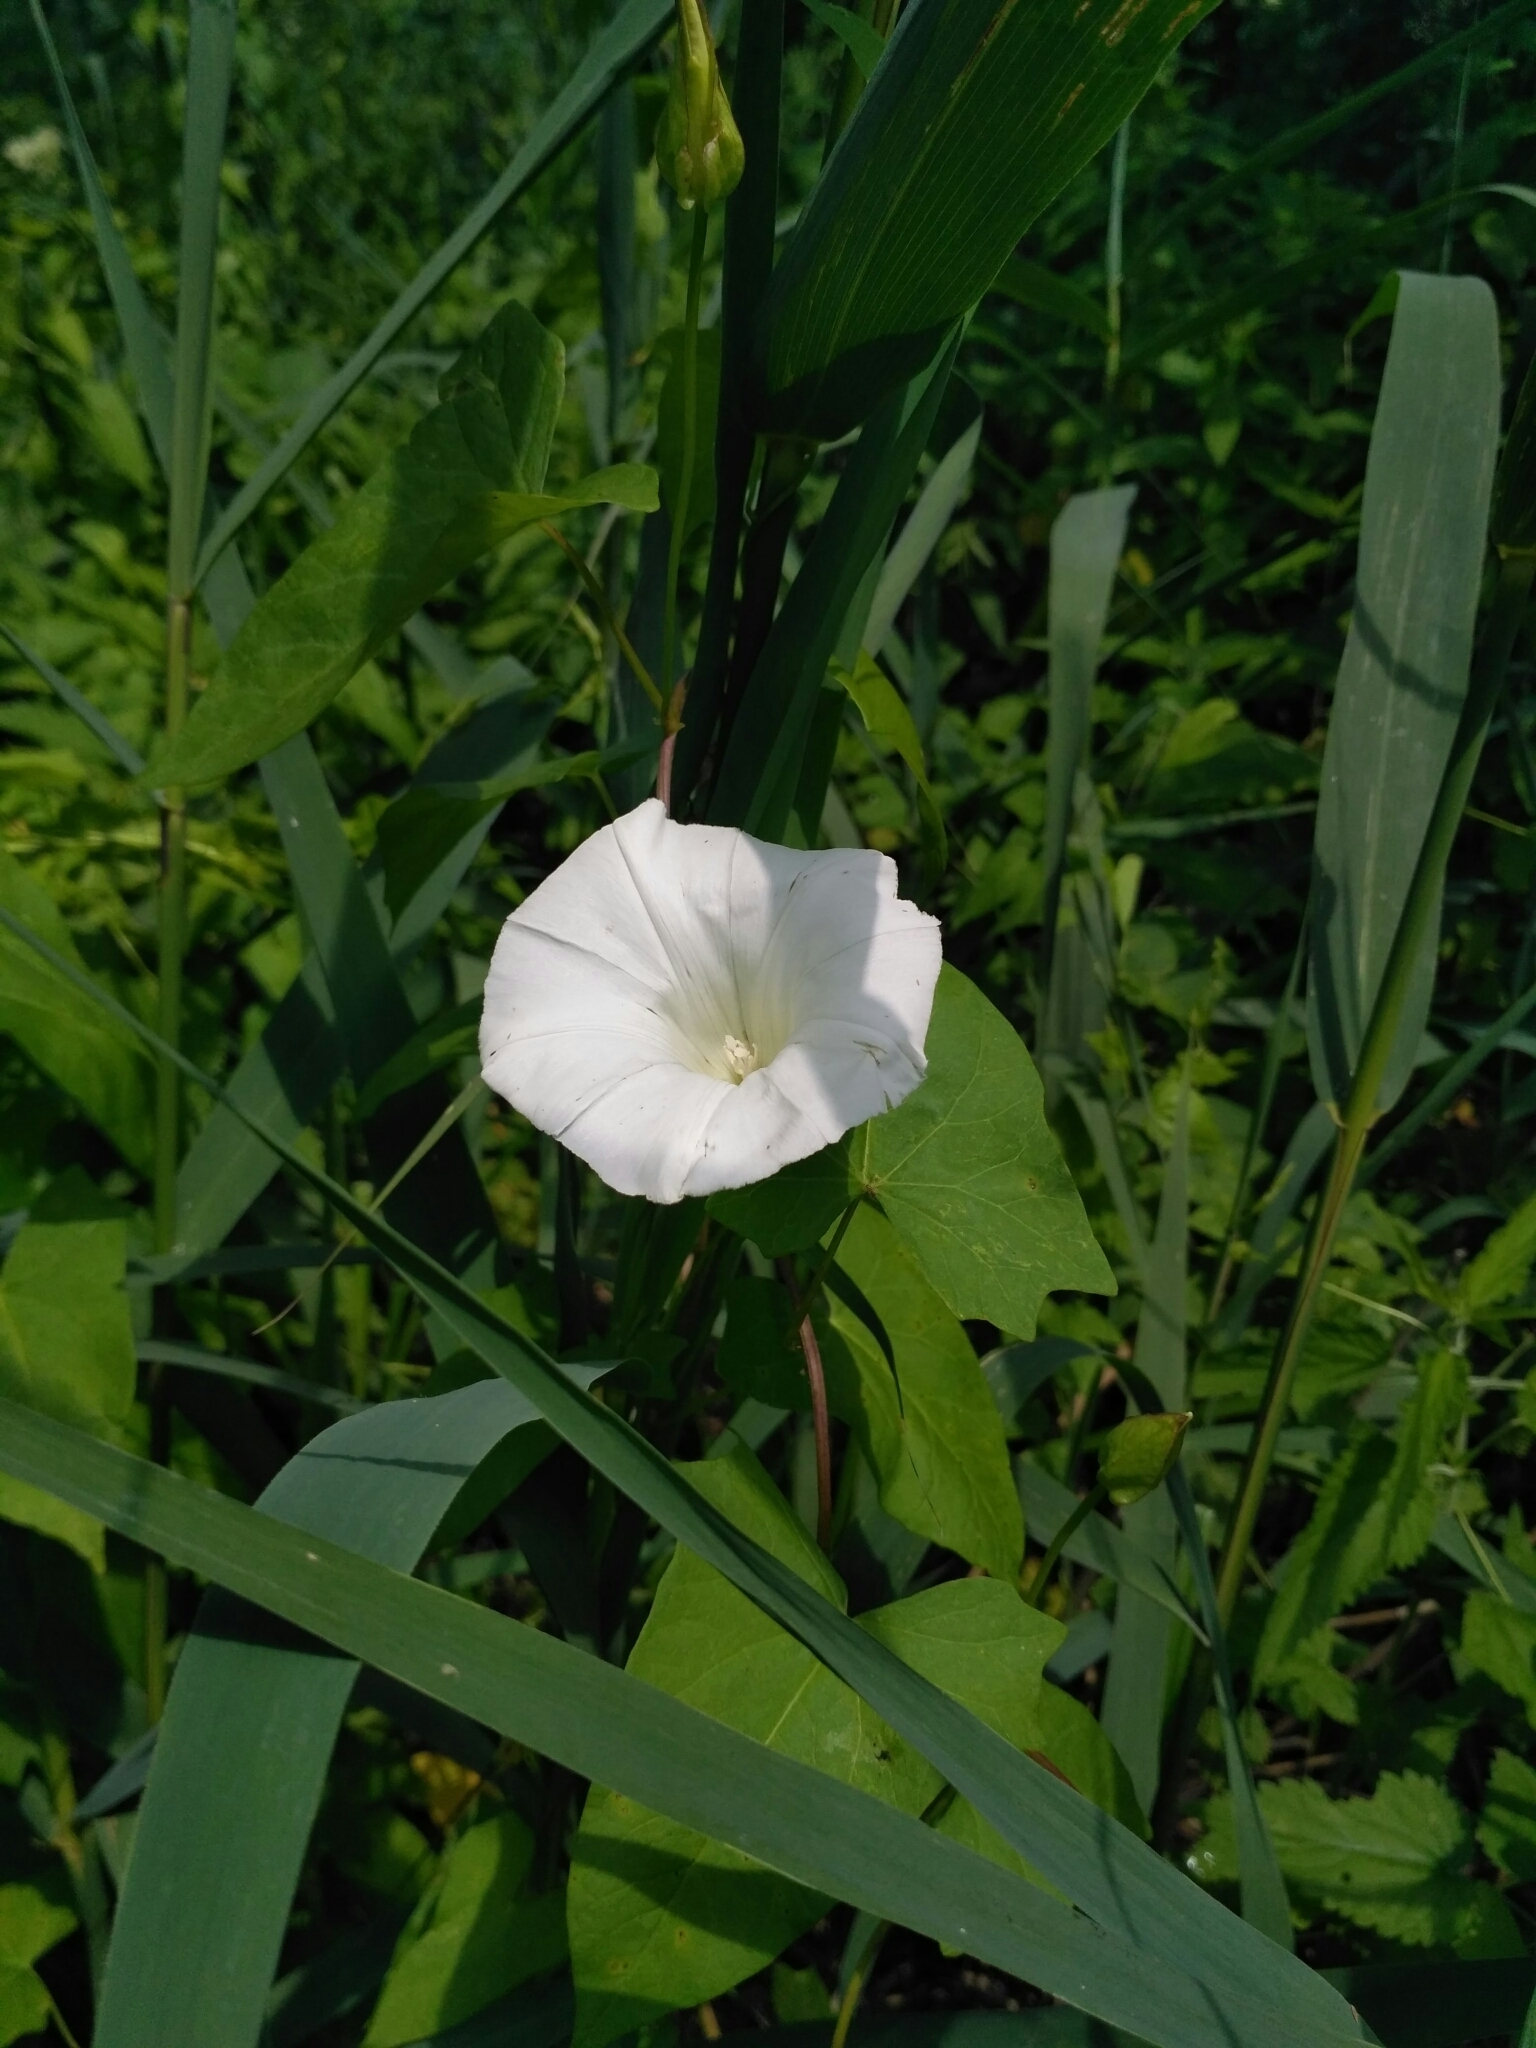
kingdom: Plantae
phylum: Tracheophyta
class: Magnoliopsida
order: Solanales
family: Convolvulaceae
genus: Calystegia
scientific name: Calystegia sepium
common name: Hedge bindweed
